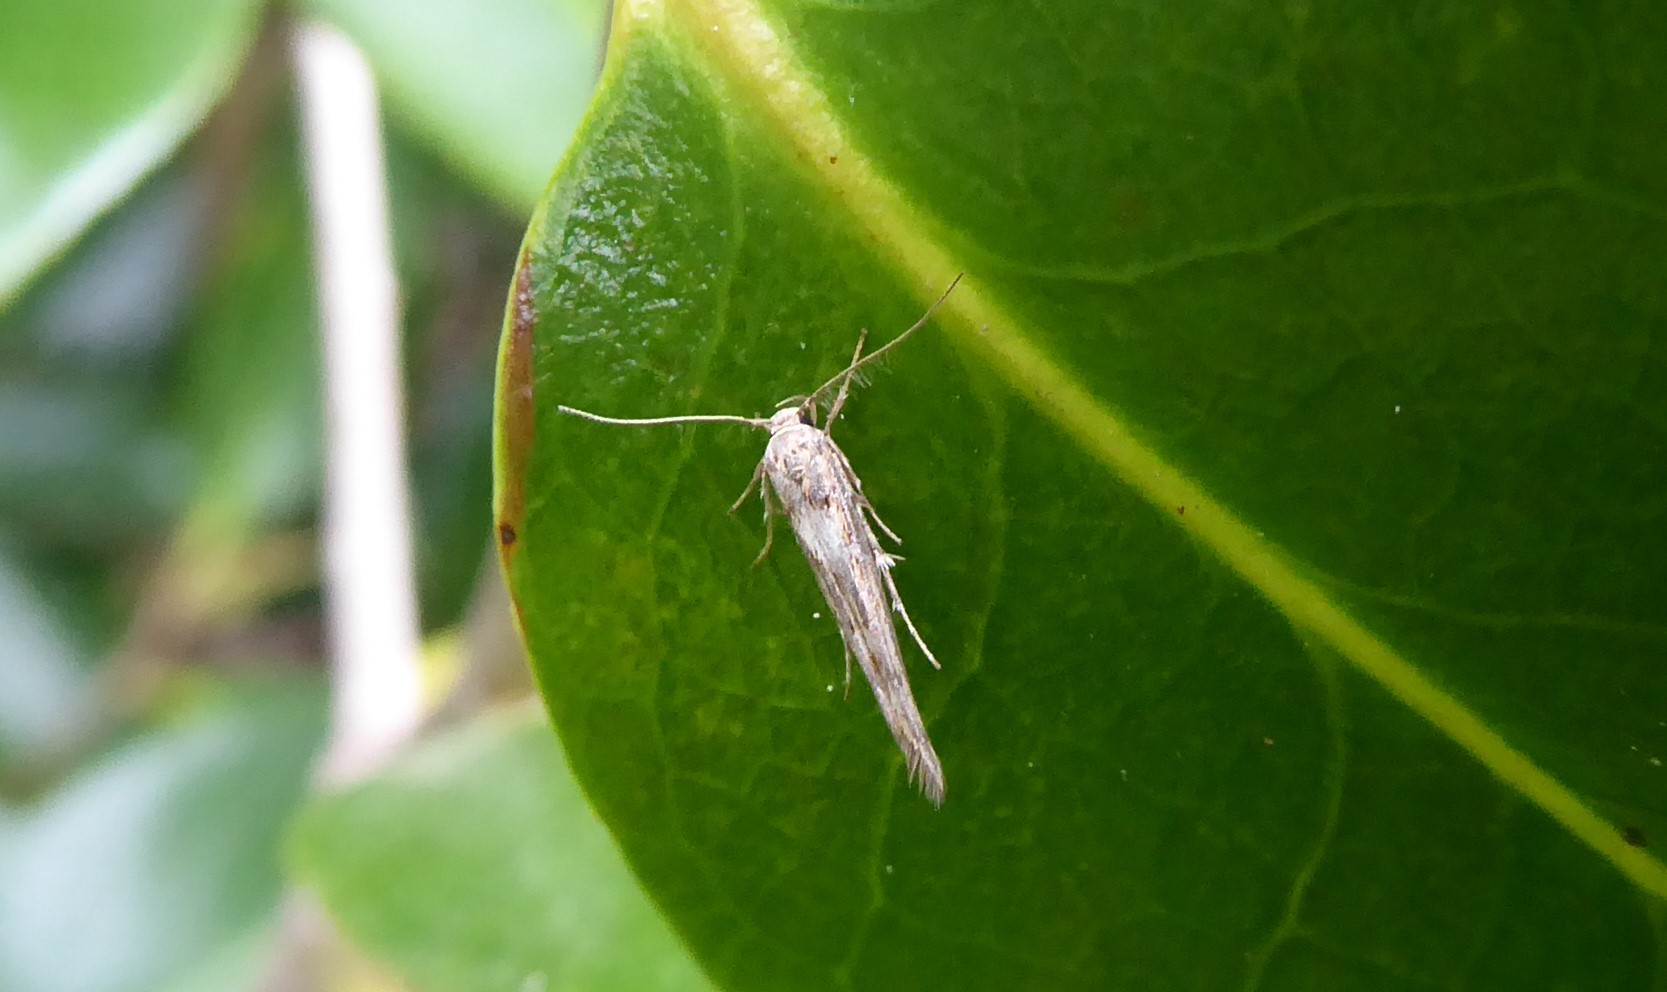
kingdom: Animalia
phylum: Arthropoda
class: Insecta
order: Lepidoptera
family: Stathmopodidae
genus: Stathmopoda
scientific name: Stathmopoda plumbiflua
